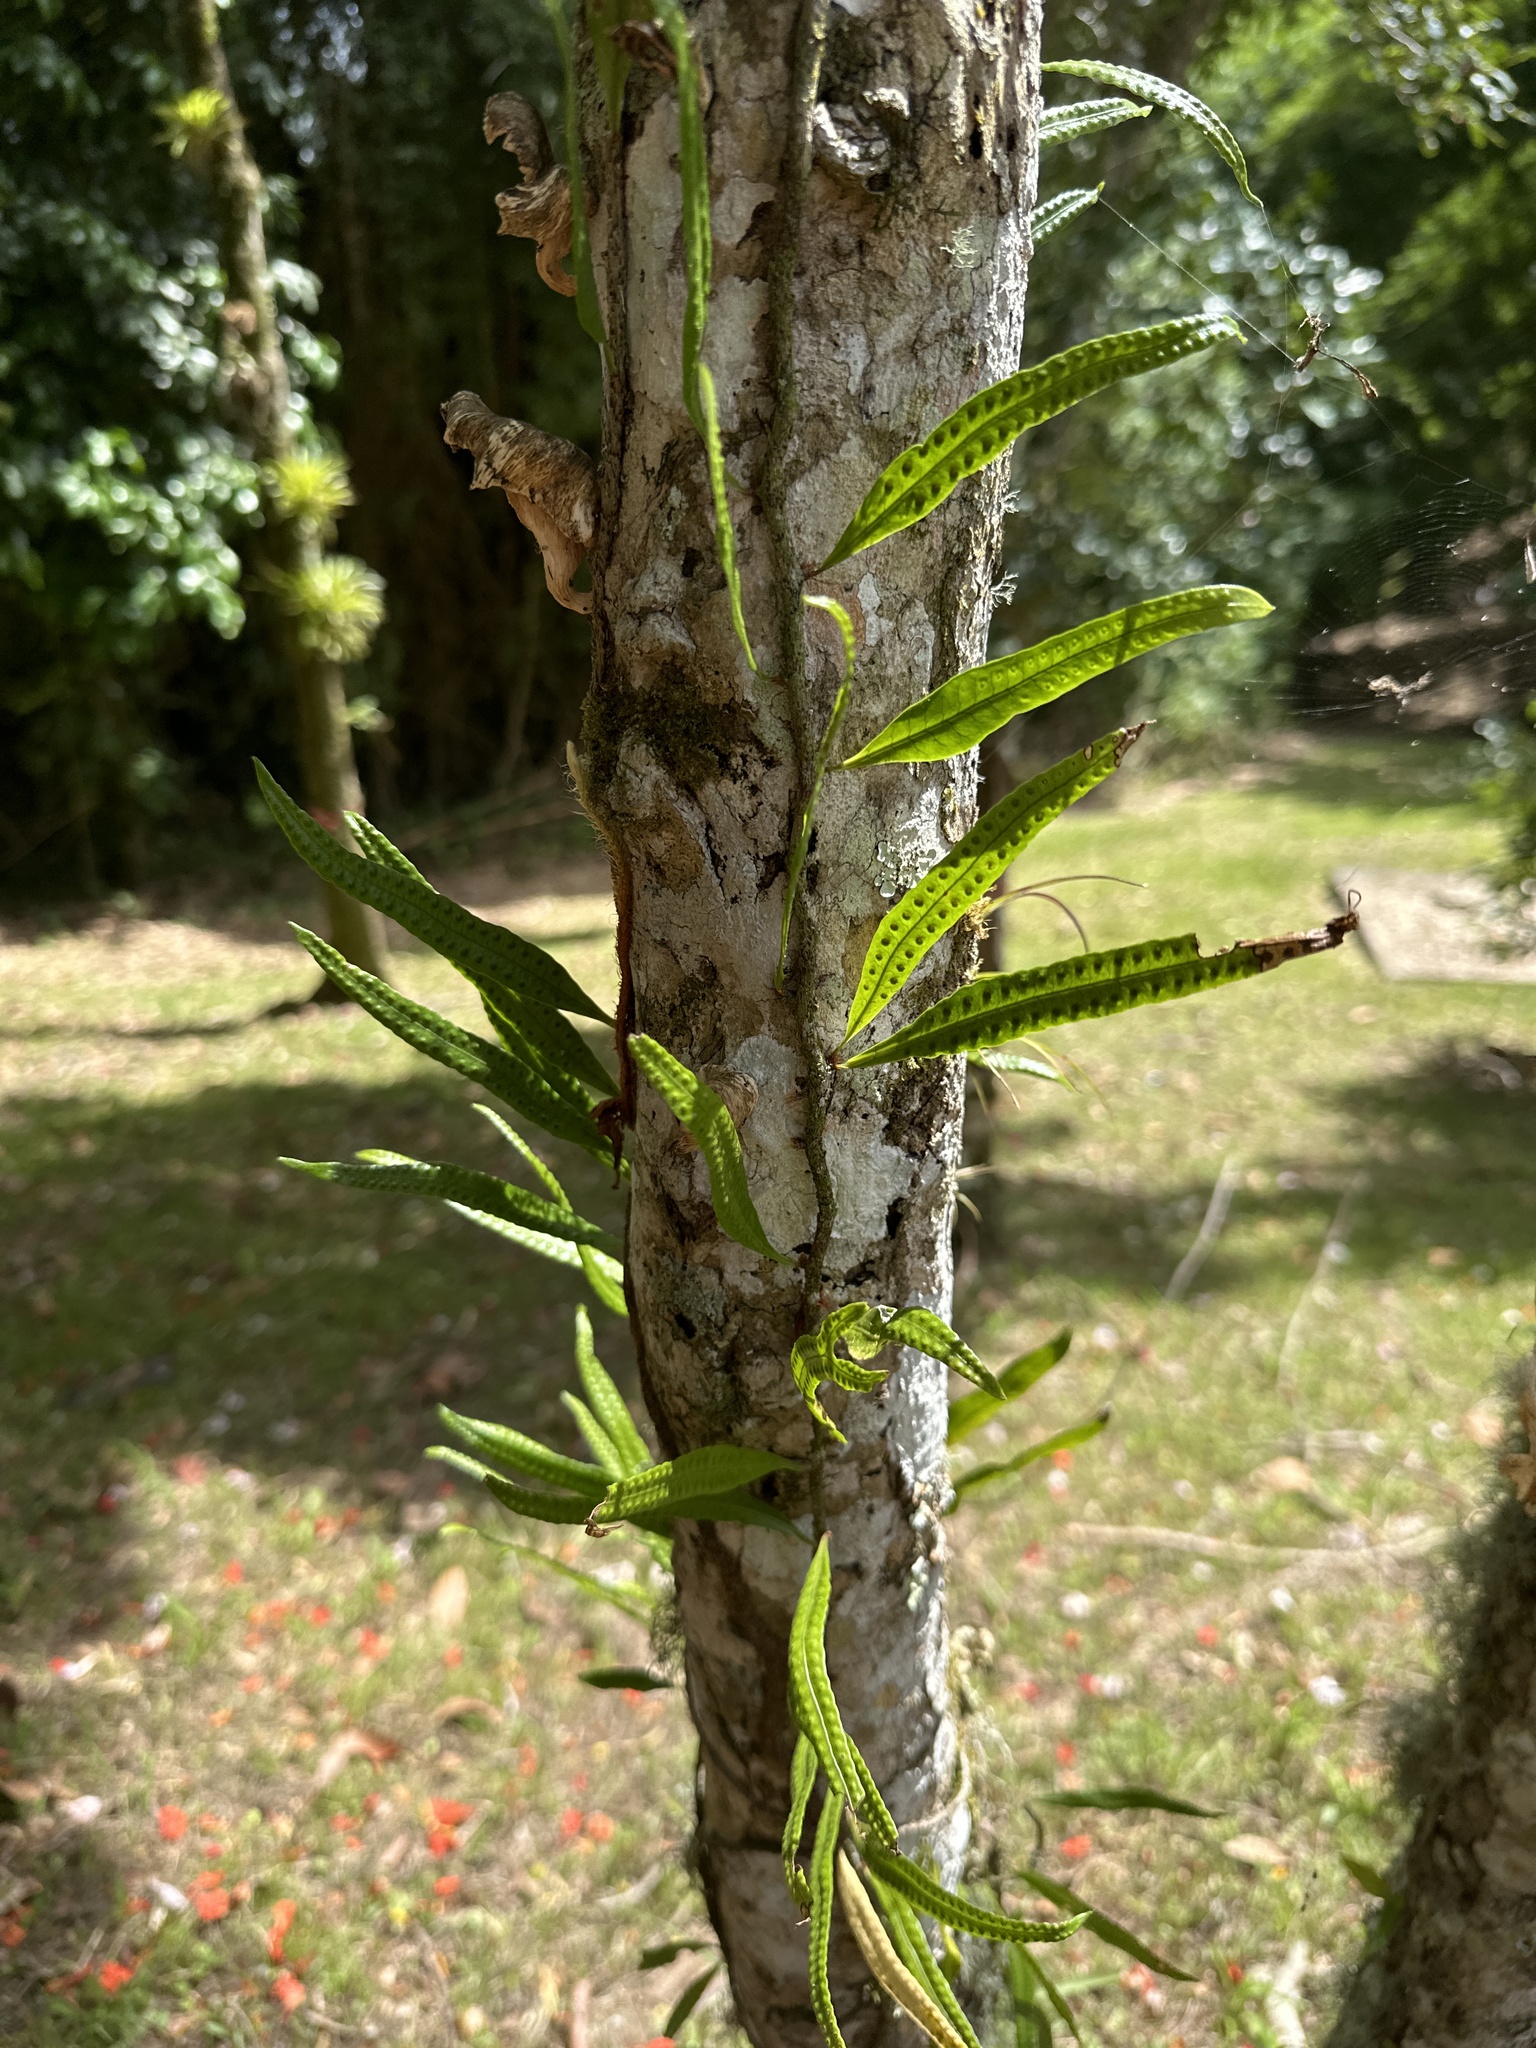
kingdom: Plantae
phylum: Tracheophyta
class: Polypodiopsida
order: Polypodiales
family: Polypodiaceae
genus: Microgramma
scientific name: Microgramma lycopodioides
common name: Bastard catclaw
